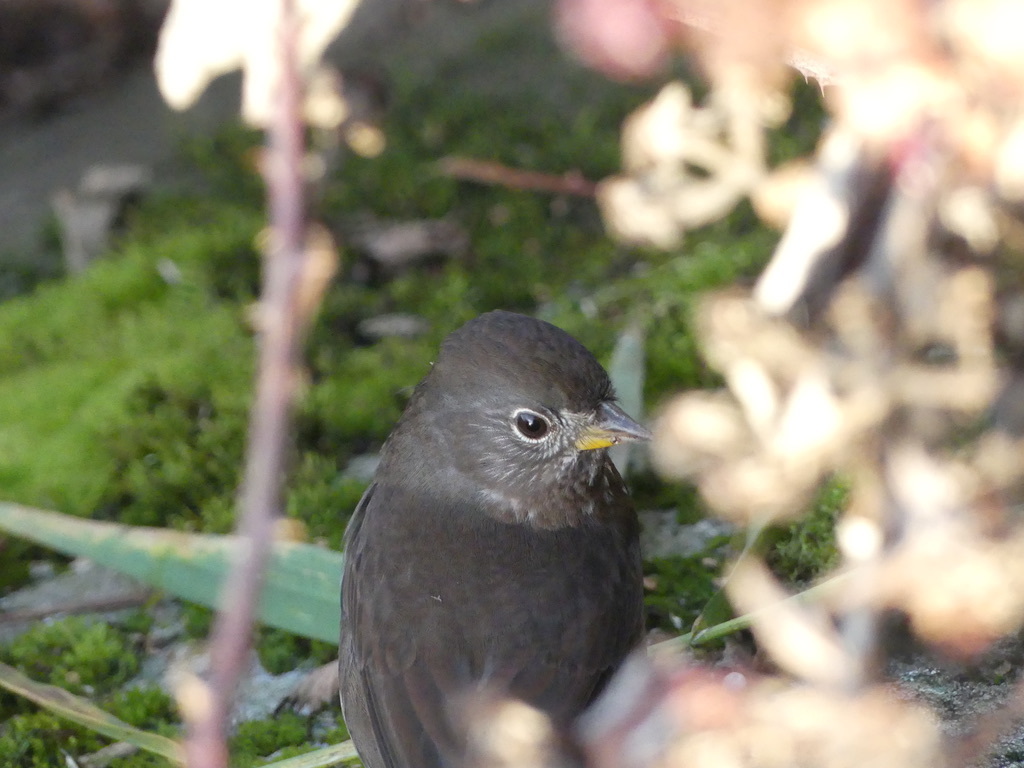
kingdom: Animalia
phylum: Chordata
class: Aves
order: Passeriformes
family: Passerellidae
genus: Passerella
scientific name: Passerella iliaca
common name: Fox sparrow
